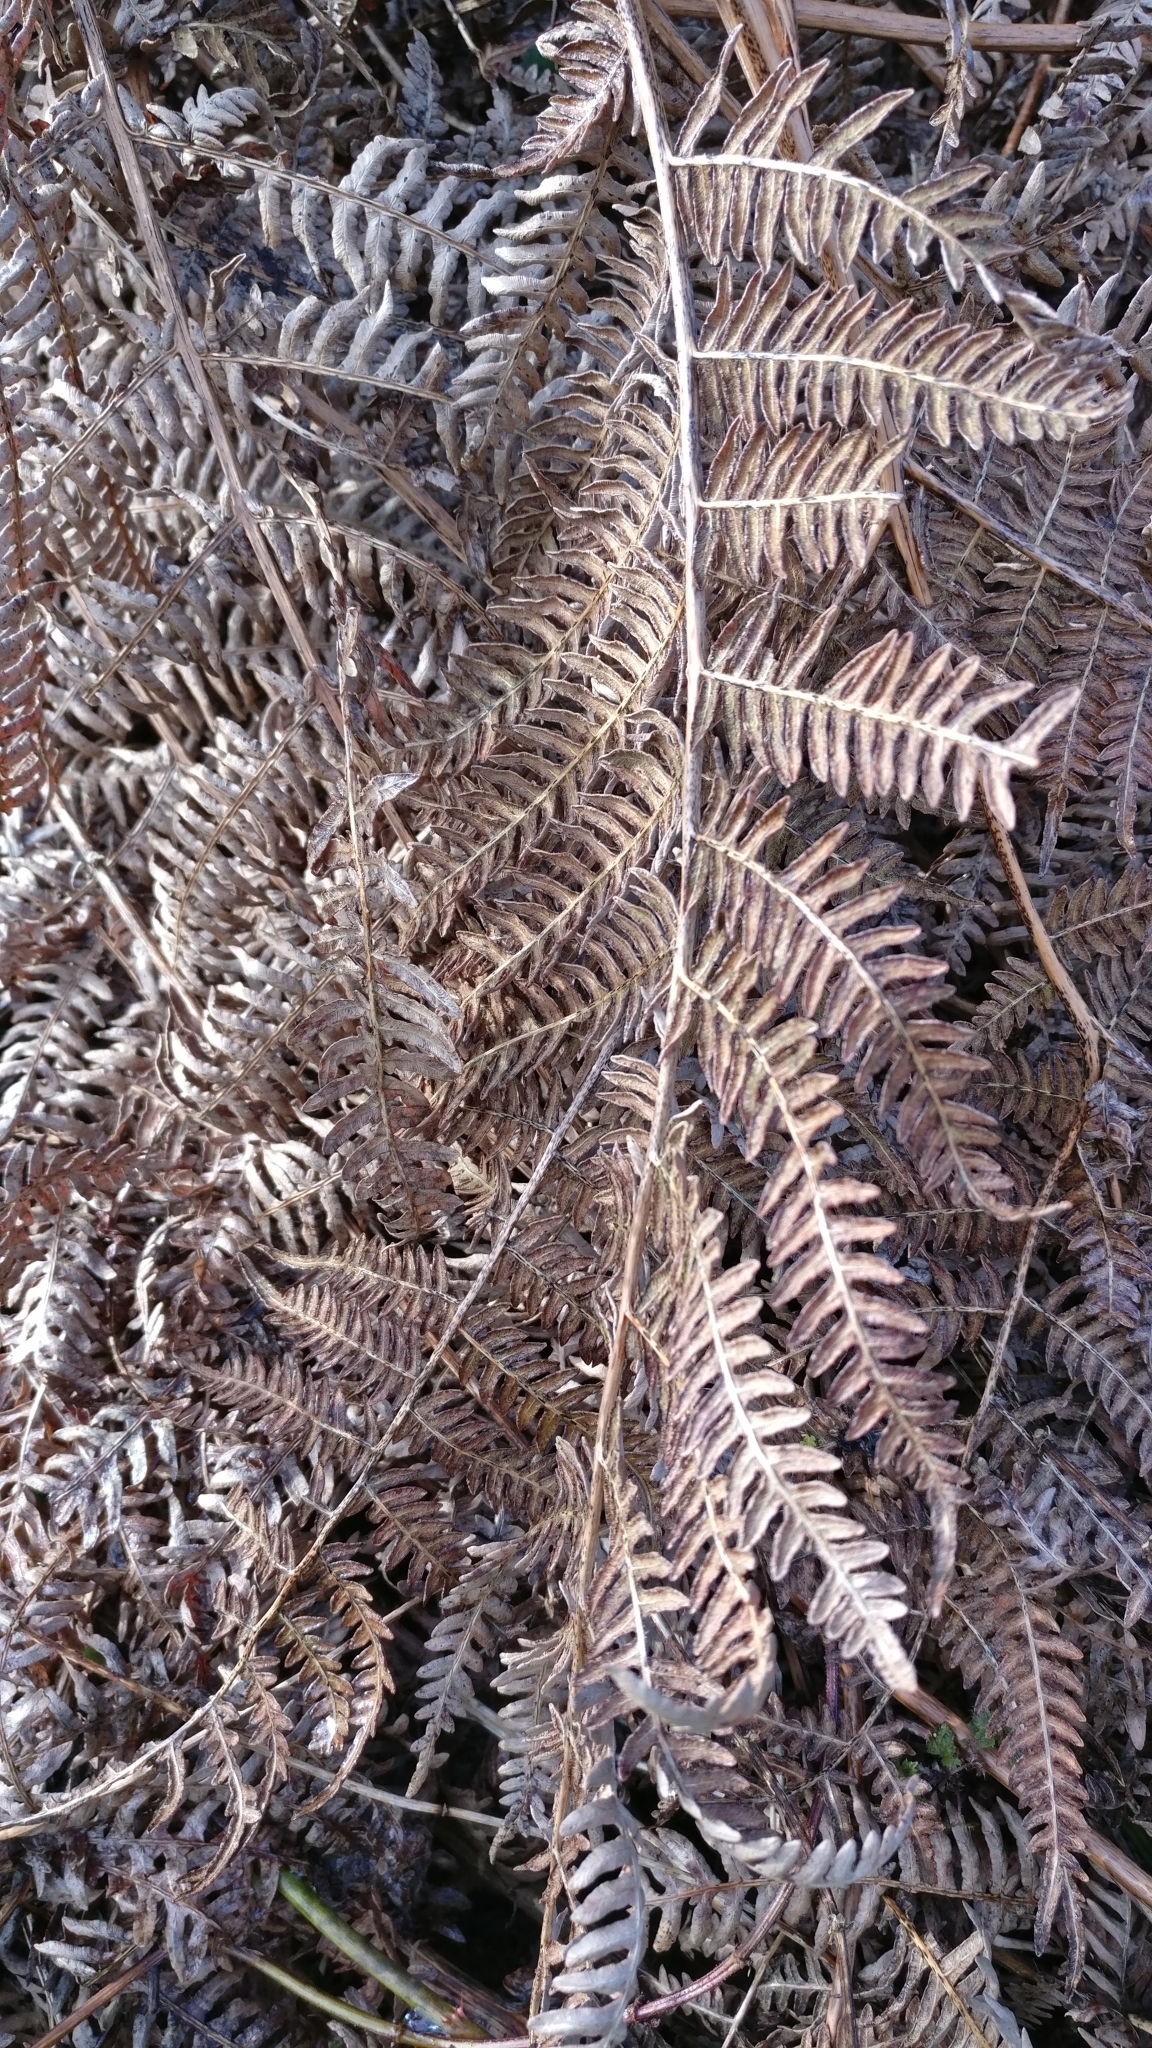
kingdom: Plantae
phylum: Tracheophyta
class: Polypodiopsida
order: Polypodiales
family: Dennstaedtiaceae
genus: Pteridium
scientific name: Pteridium aquilinum
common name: Bracken
